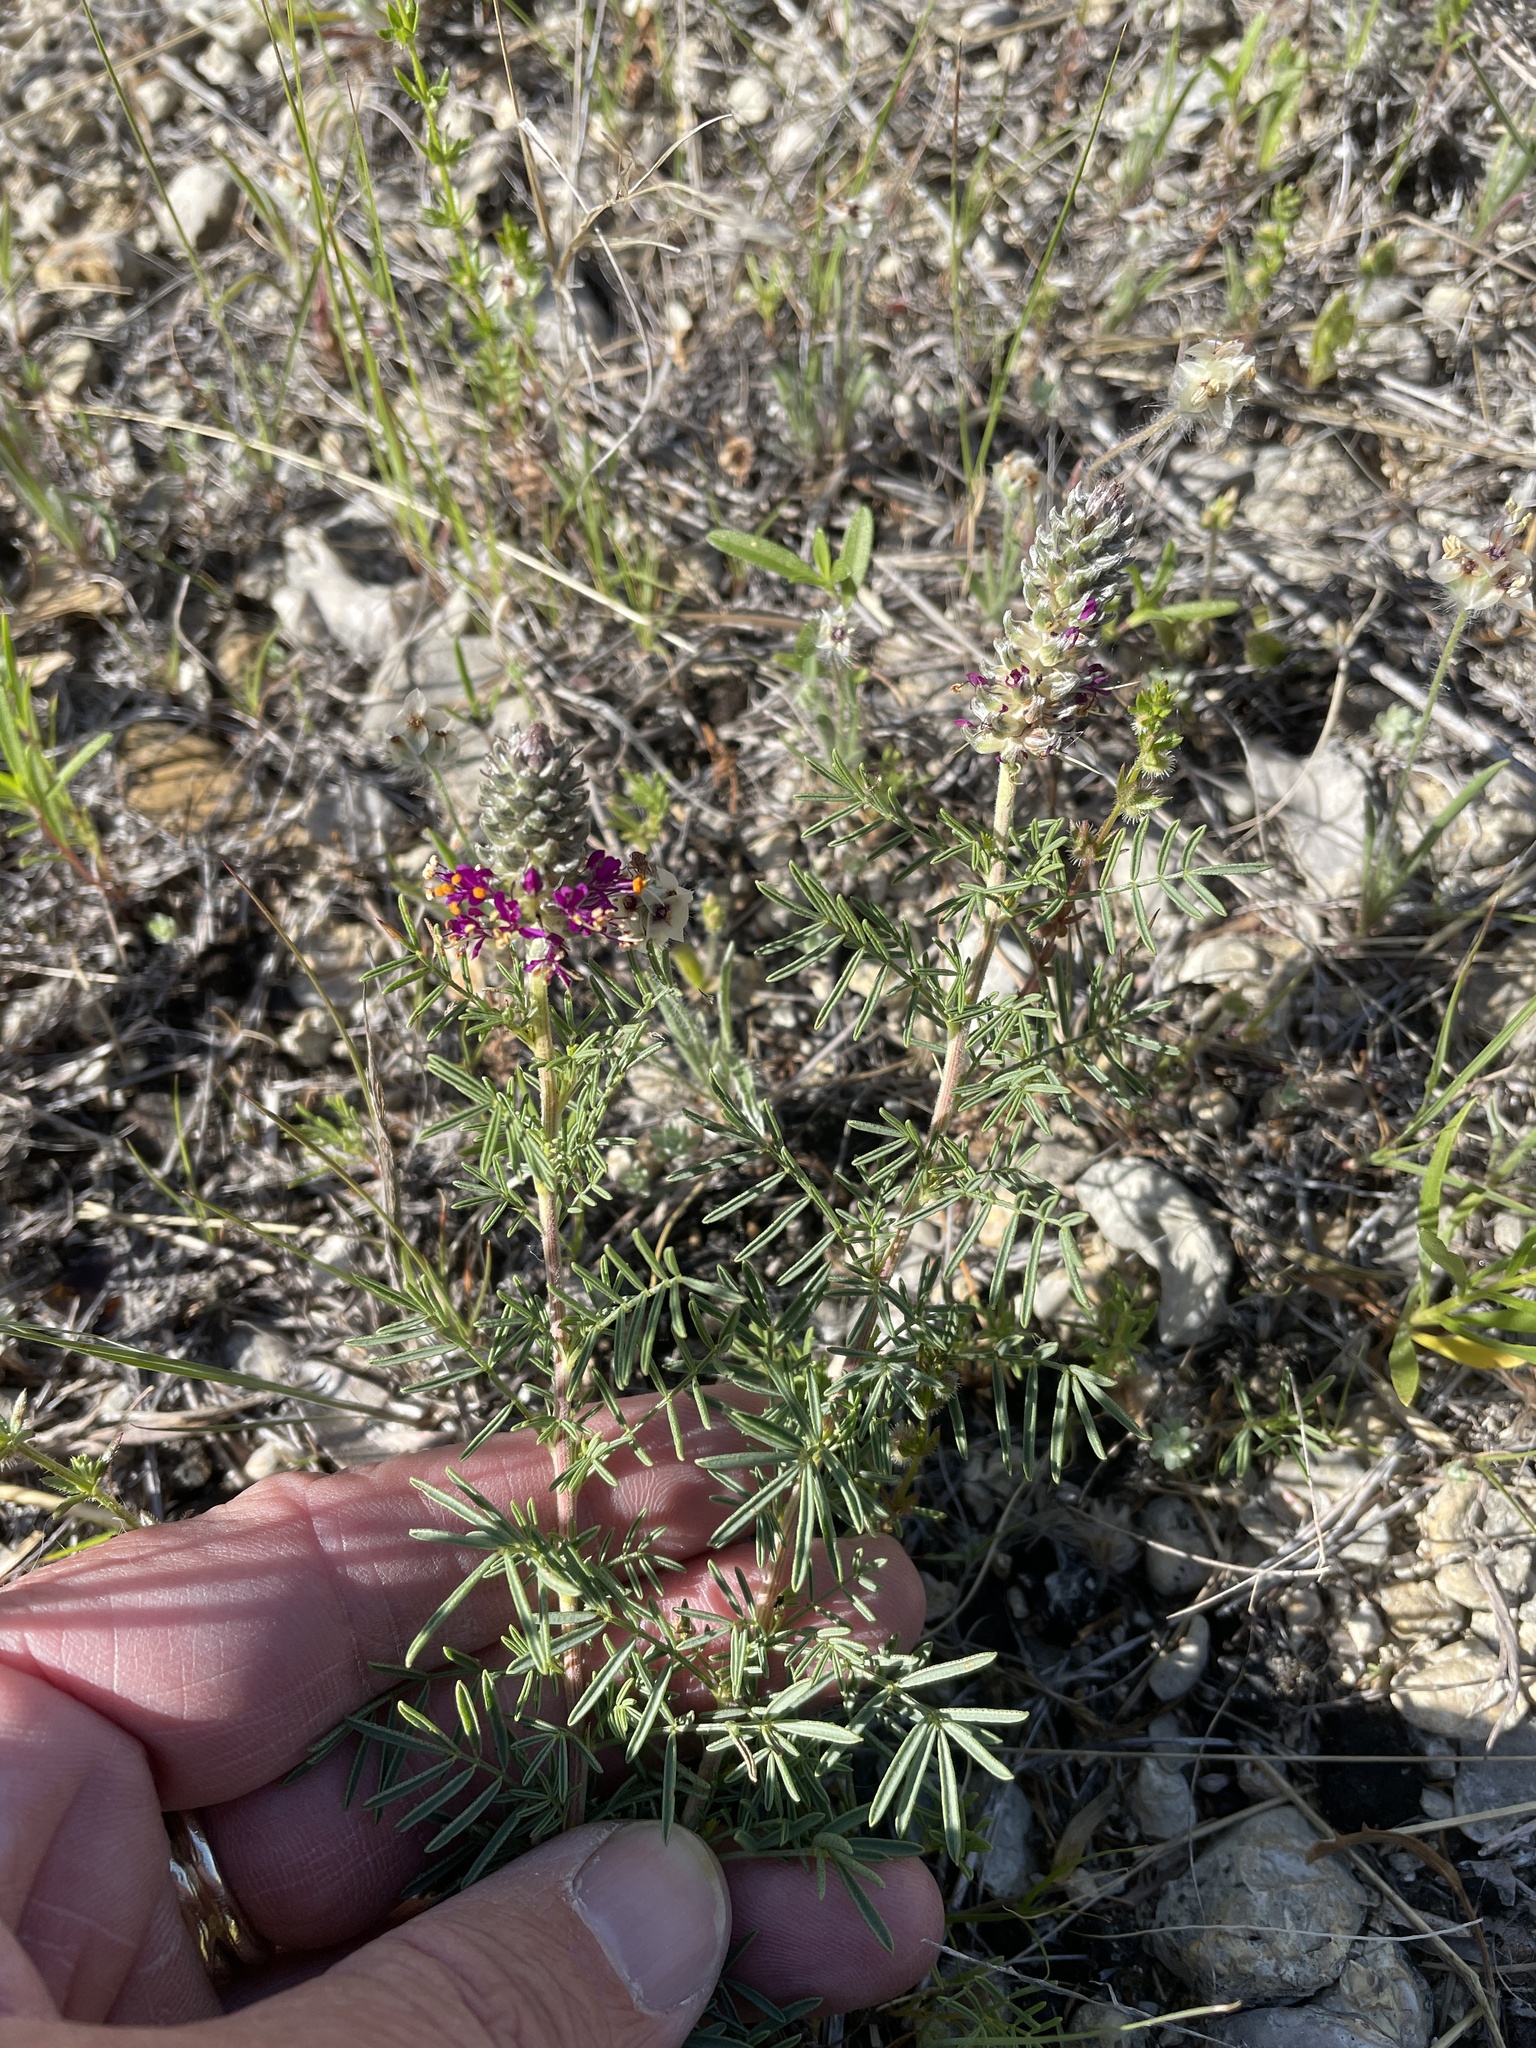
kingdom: Plantae
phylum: Tracheophyta
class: Magnoliopsida
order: Fabales
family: Fabaceae
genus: Dalea
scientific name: Dalea reverchonii
